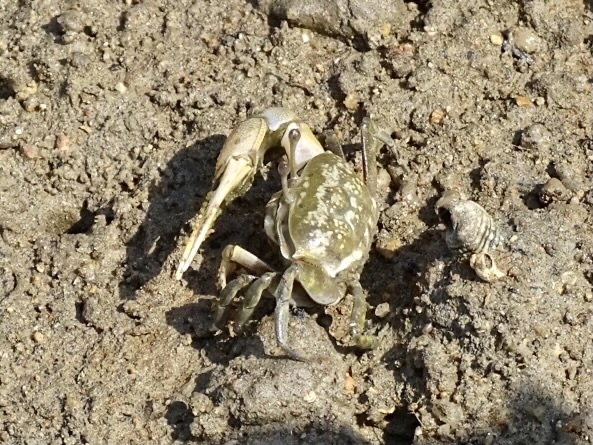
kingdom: Animalia
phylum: Arthropoda
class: Malacostraca
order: Decapoda
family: Ocypodidae
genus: Gelasimus
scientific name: Gelasimus borealis
